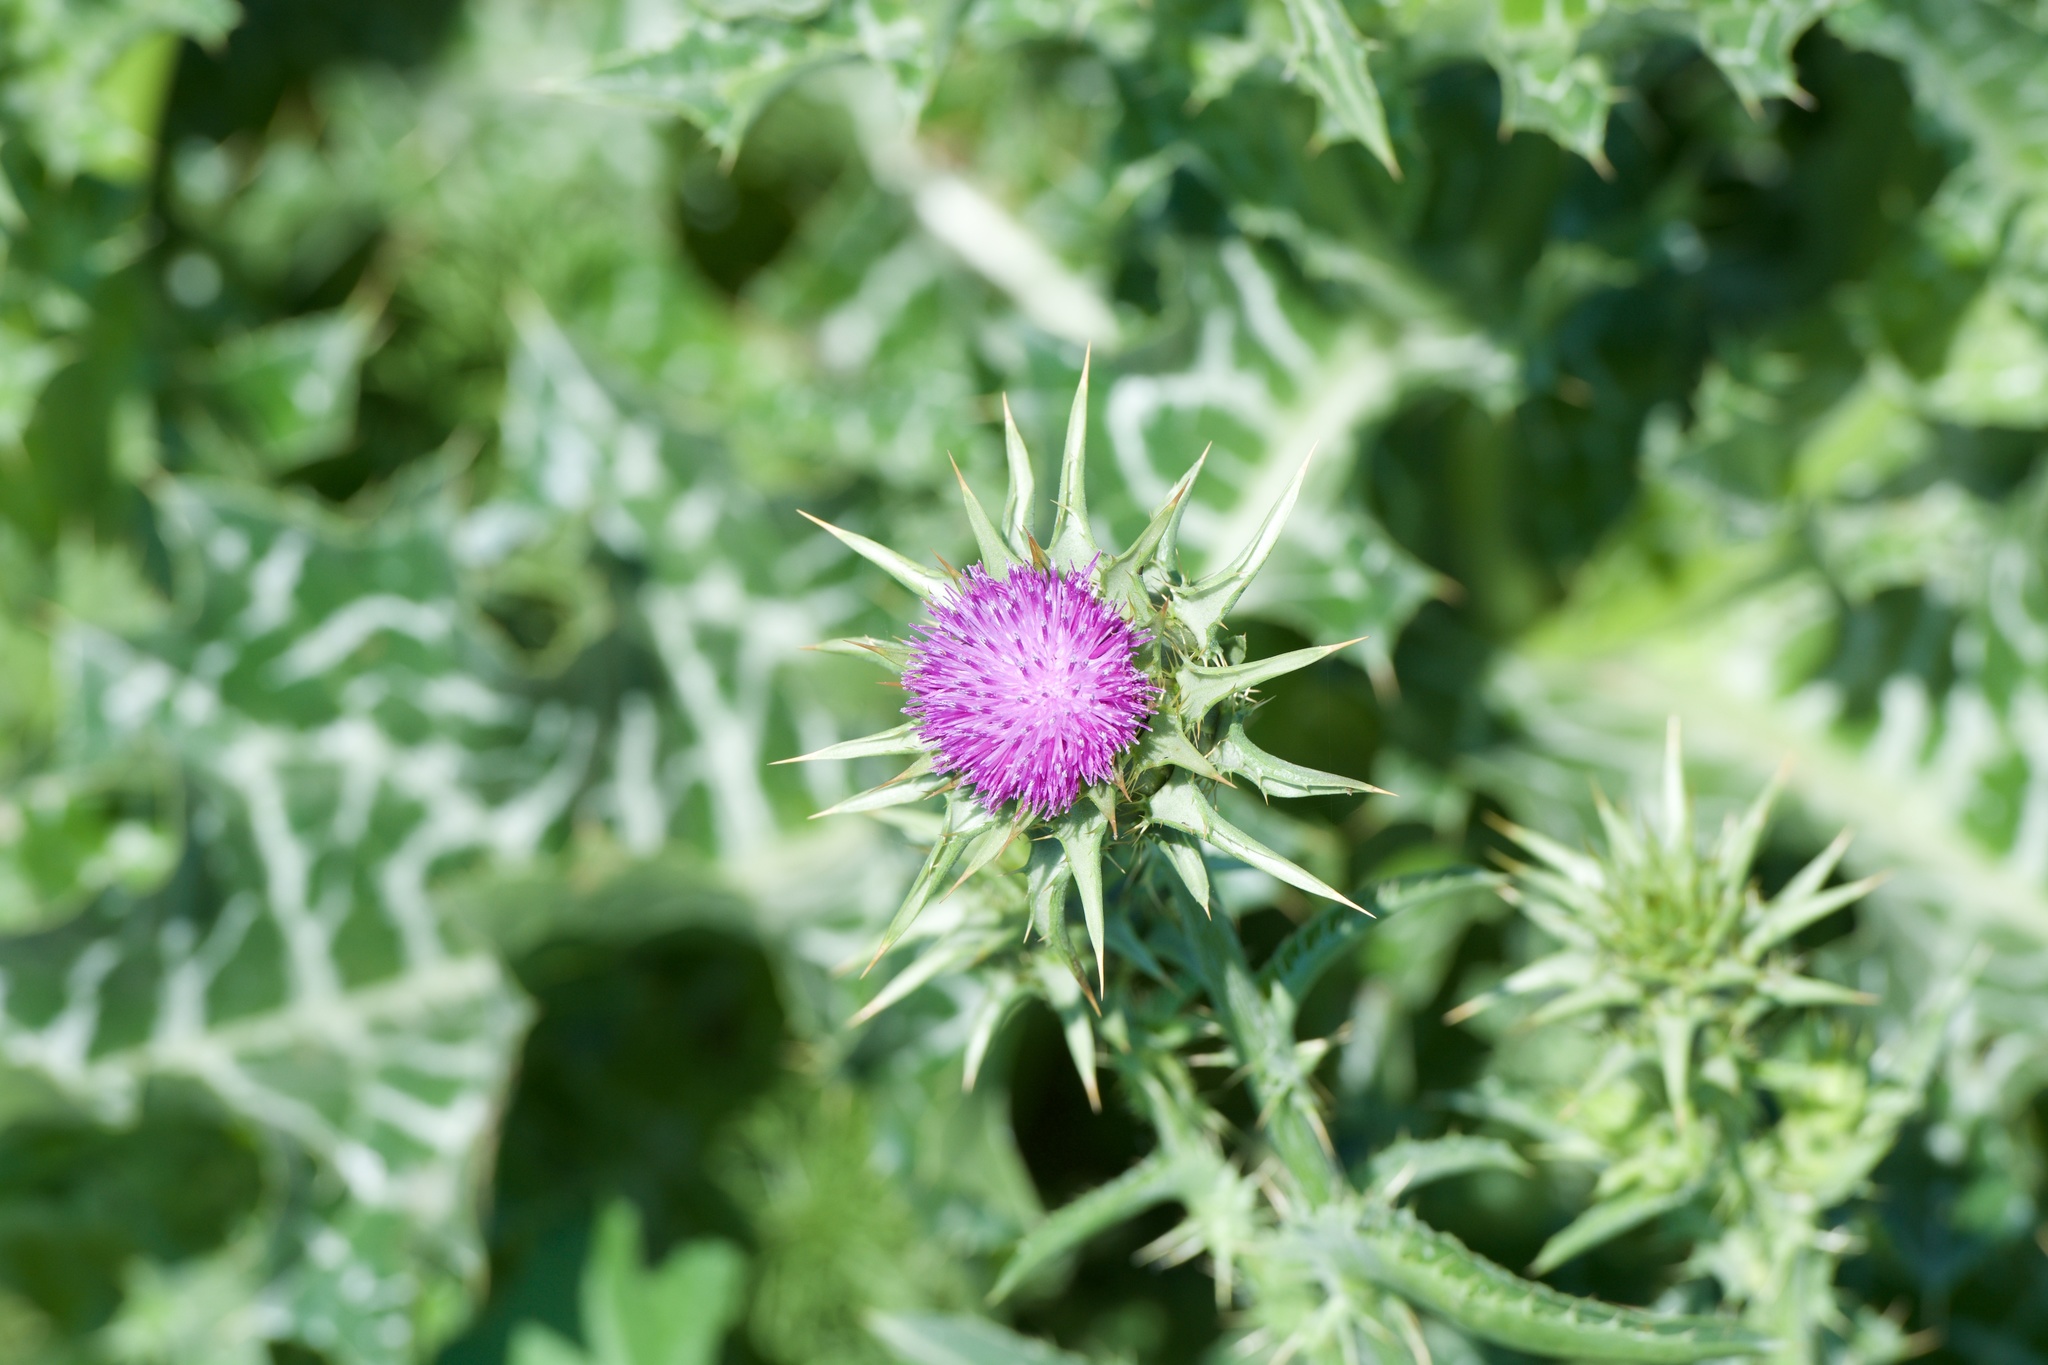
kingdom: Plantae
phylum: Tracheophyta
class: Magnoliopsida
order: Asterales
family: Asteraceae
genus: Silybum
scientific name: Silybum marianum
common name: Milk thistle
